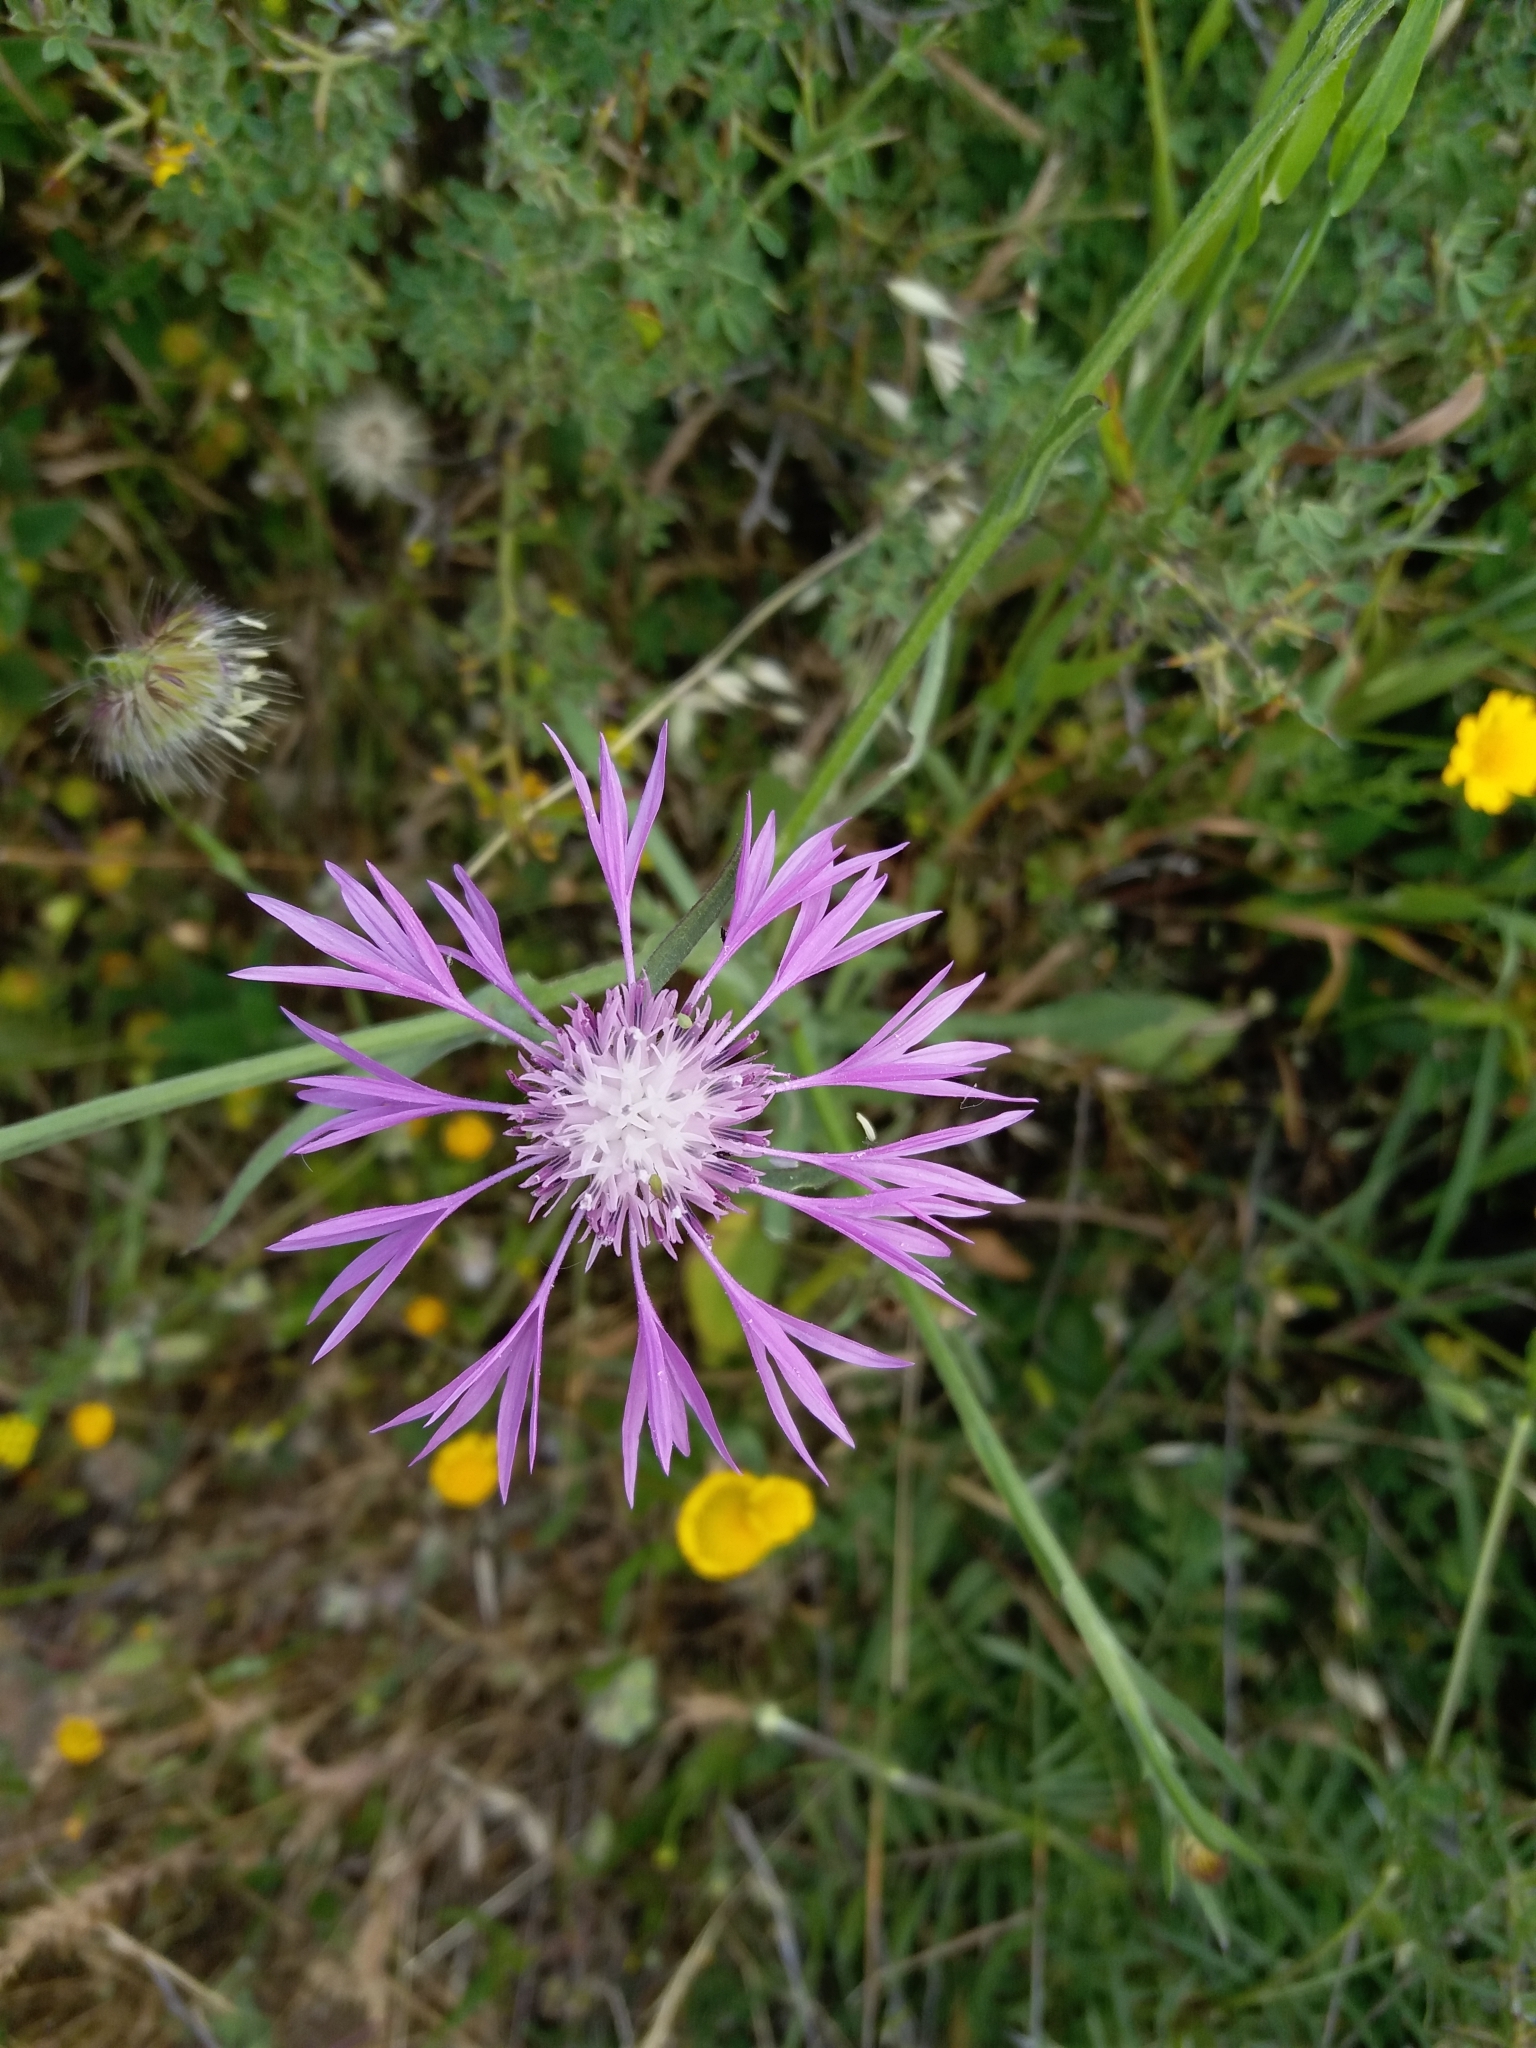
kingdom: Plantae
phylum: Tracheophyta
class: Magnoliopsida
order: Asterales
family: Asteraceae
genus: Centaurea
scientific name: Centaurea napifolia
